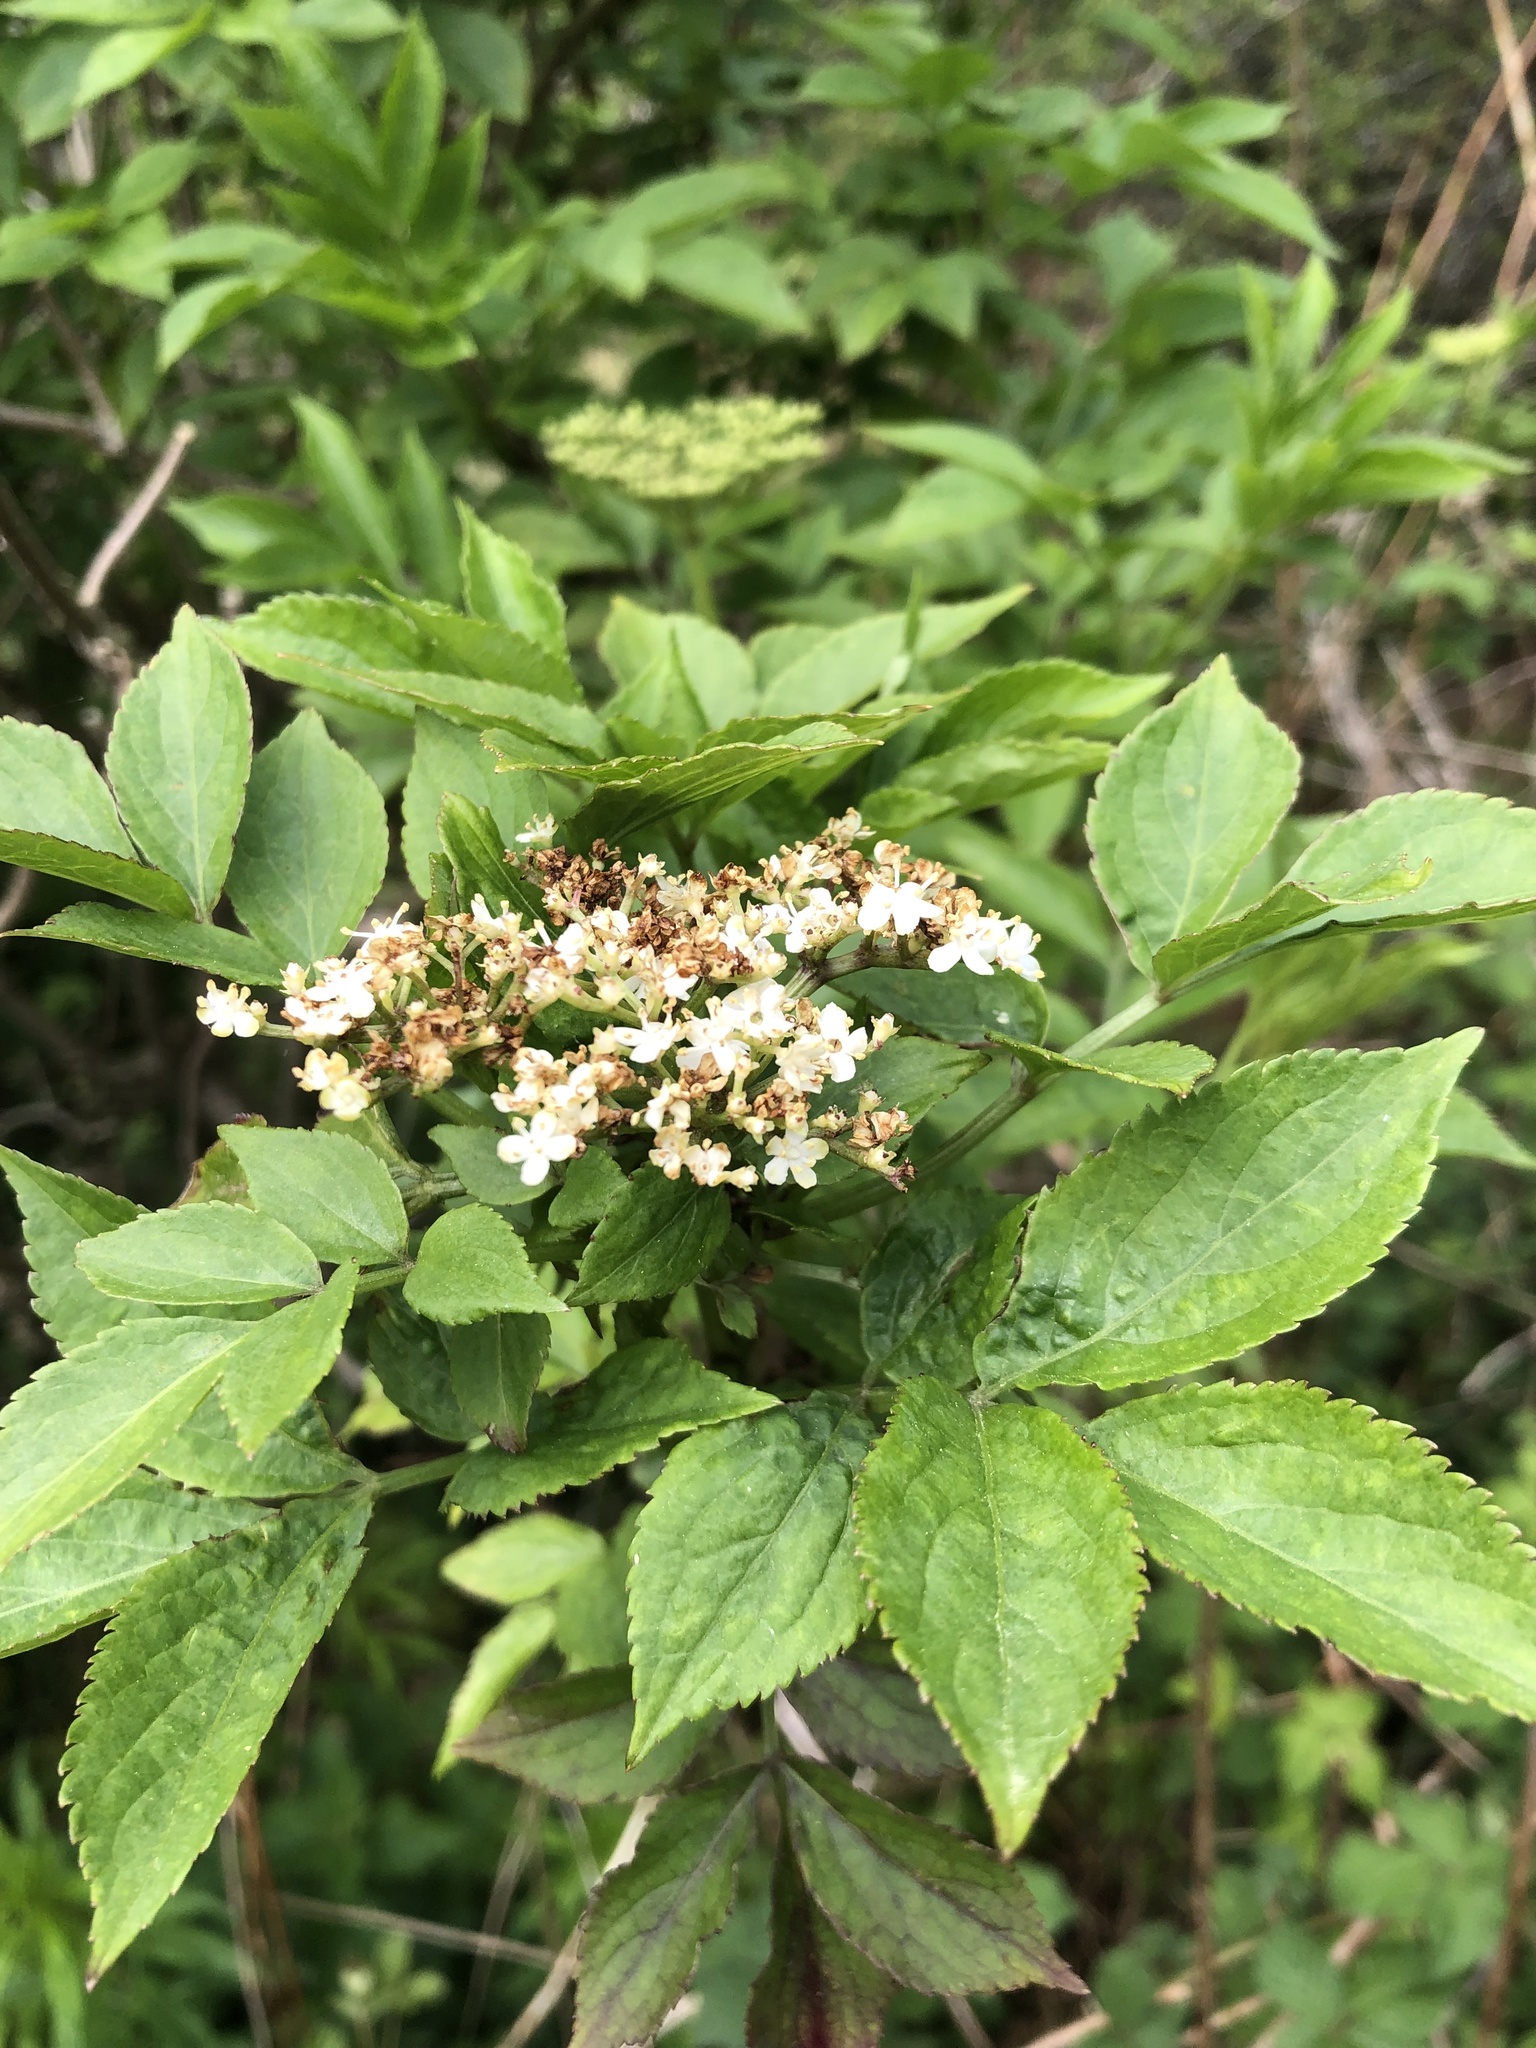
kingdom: Plantae
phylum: Tracheophyta
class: Magnoliopsida
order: Dipsacales
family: Viburnaceae
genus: Sambucus
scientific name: Sambucus nigra
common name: Elder
